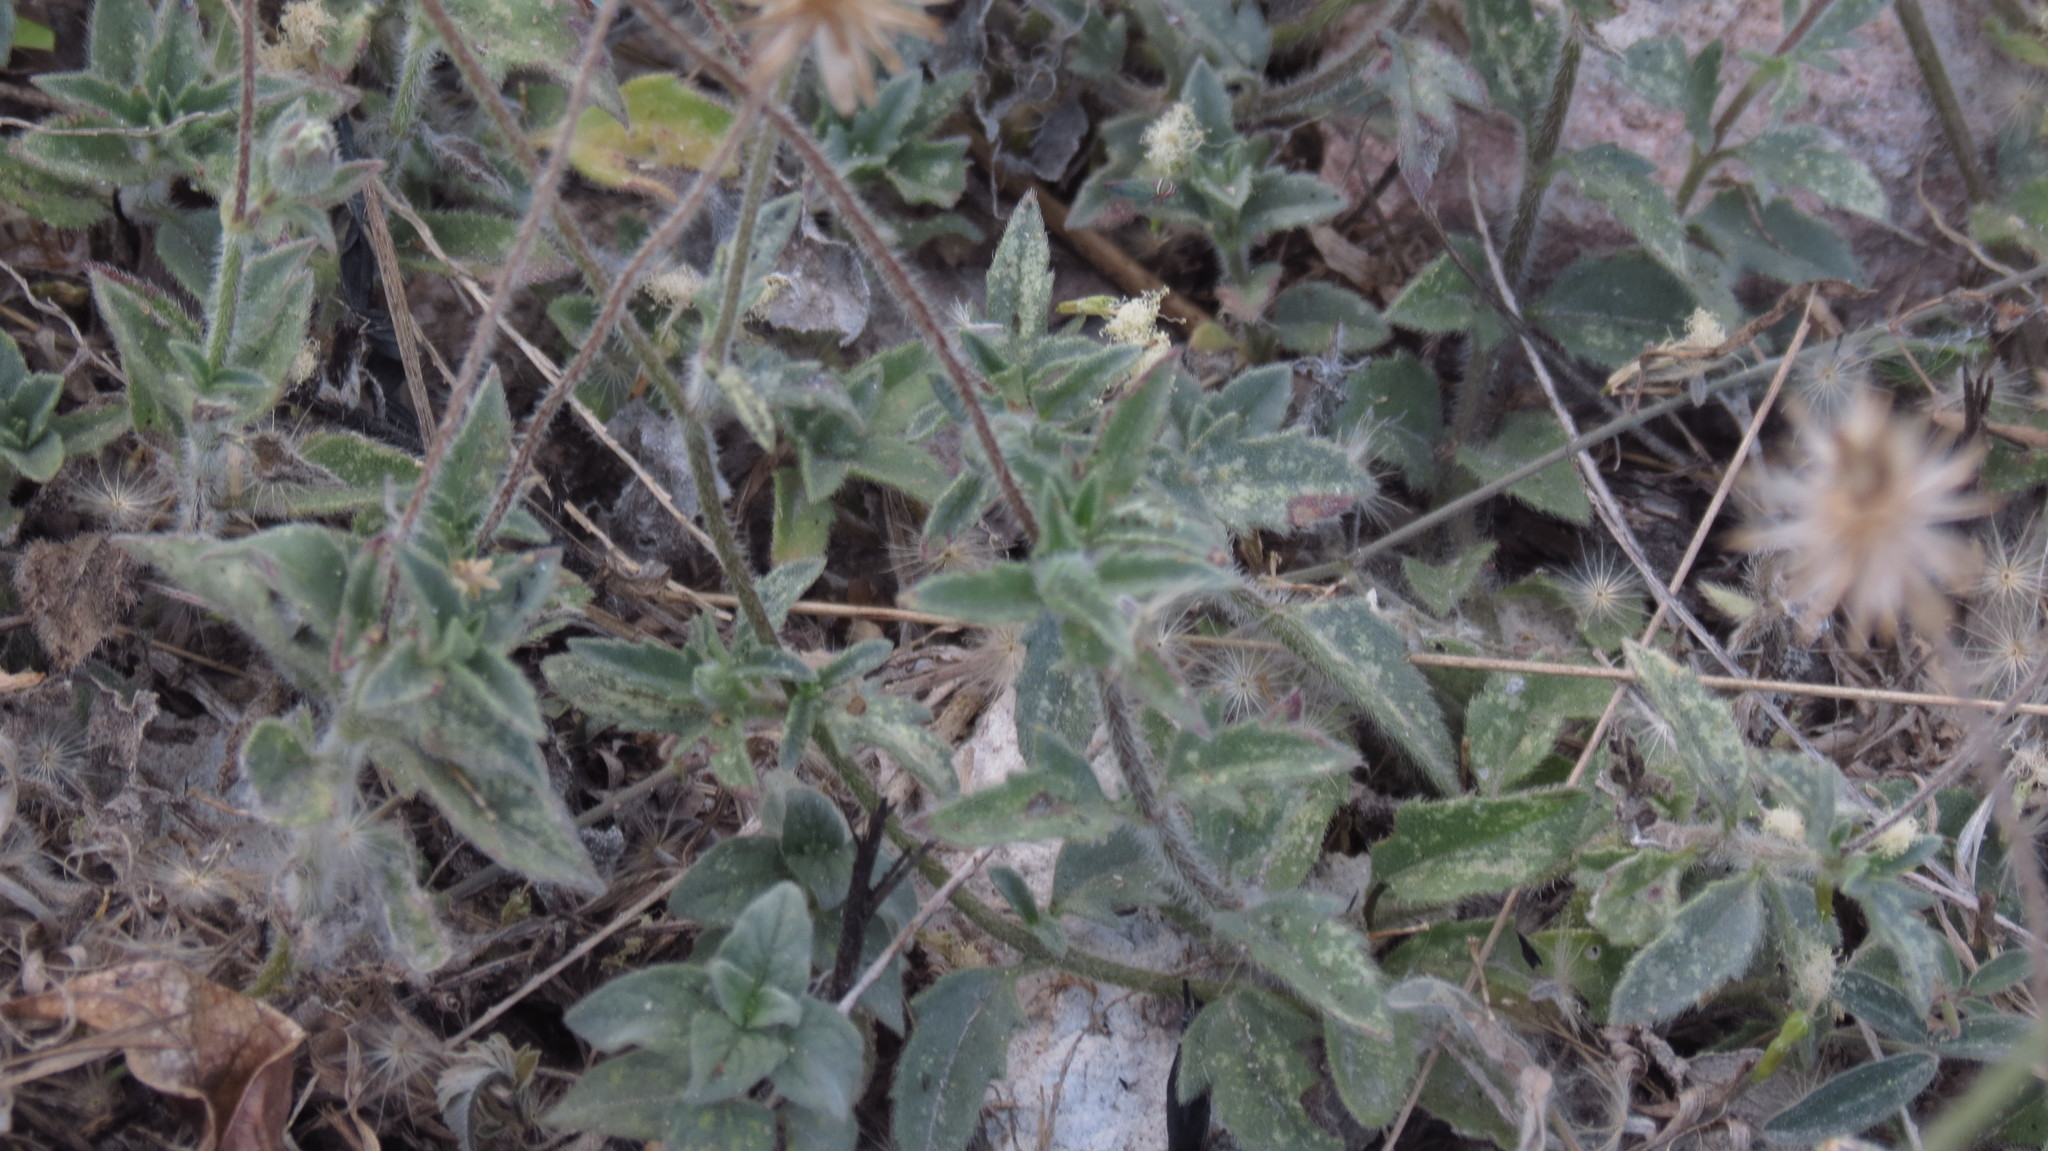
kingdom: Plantae
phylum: Tracheophyta
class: Magnoliopsida
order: Asterales
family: Asteraceae
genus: Tridax
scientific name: Tridax procumbens
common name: Coatbuttons
